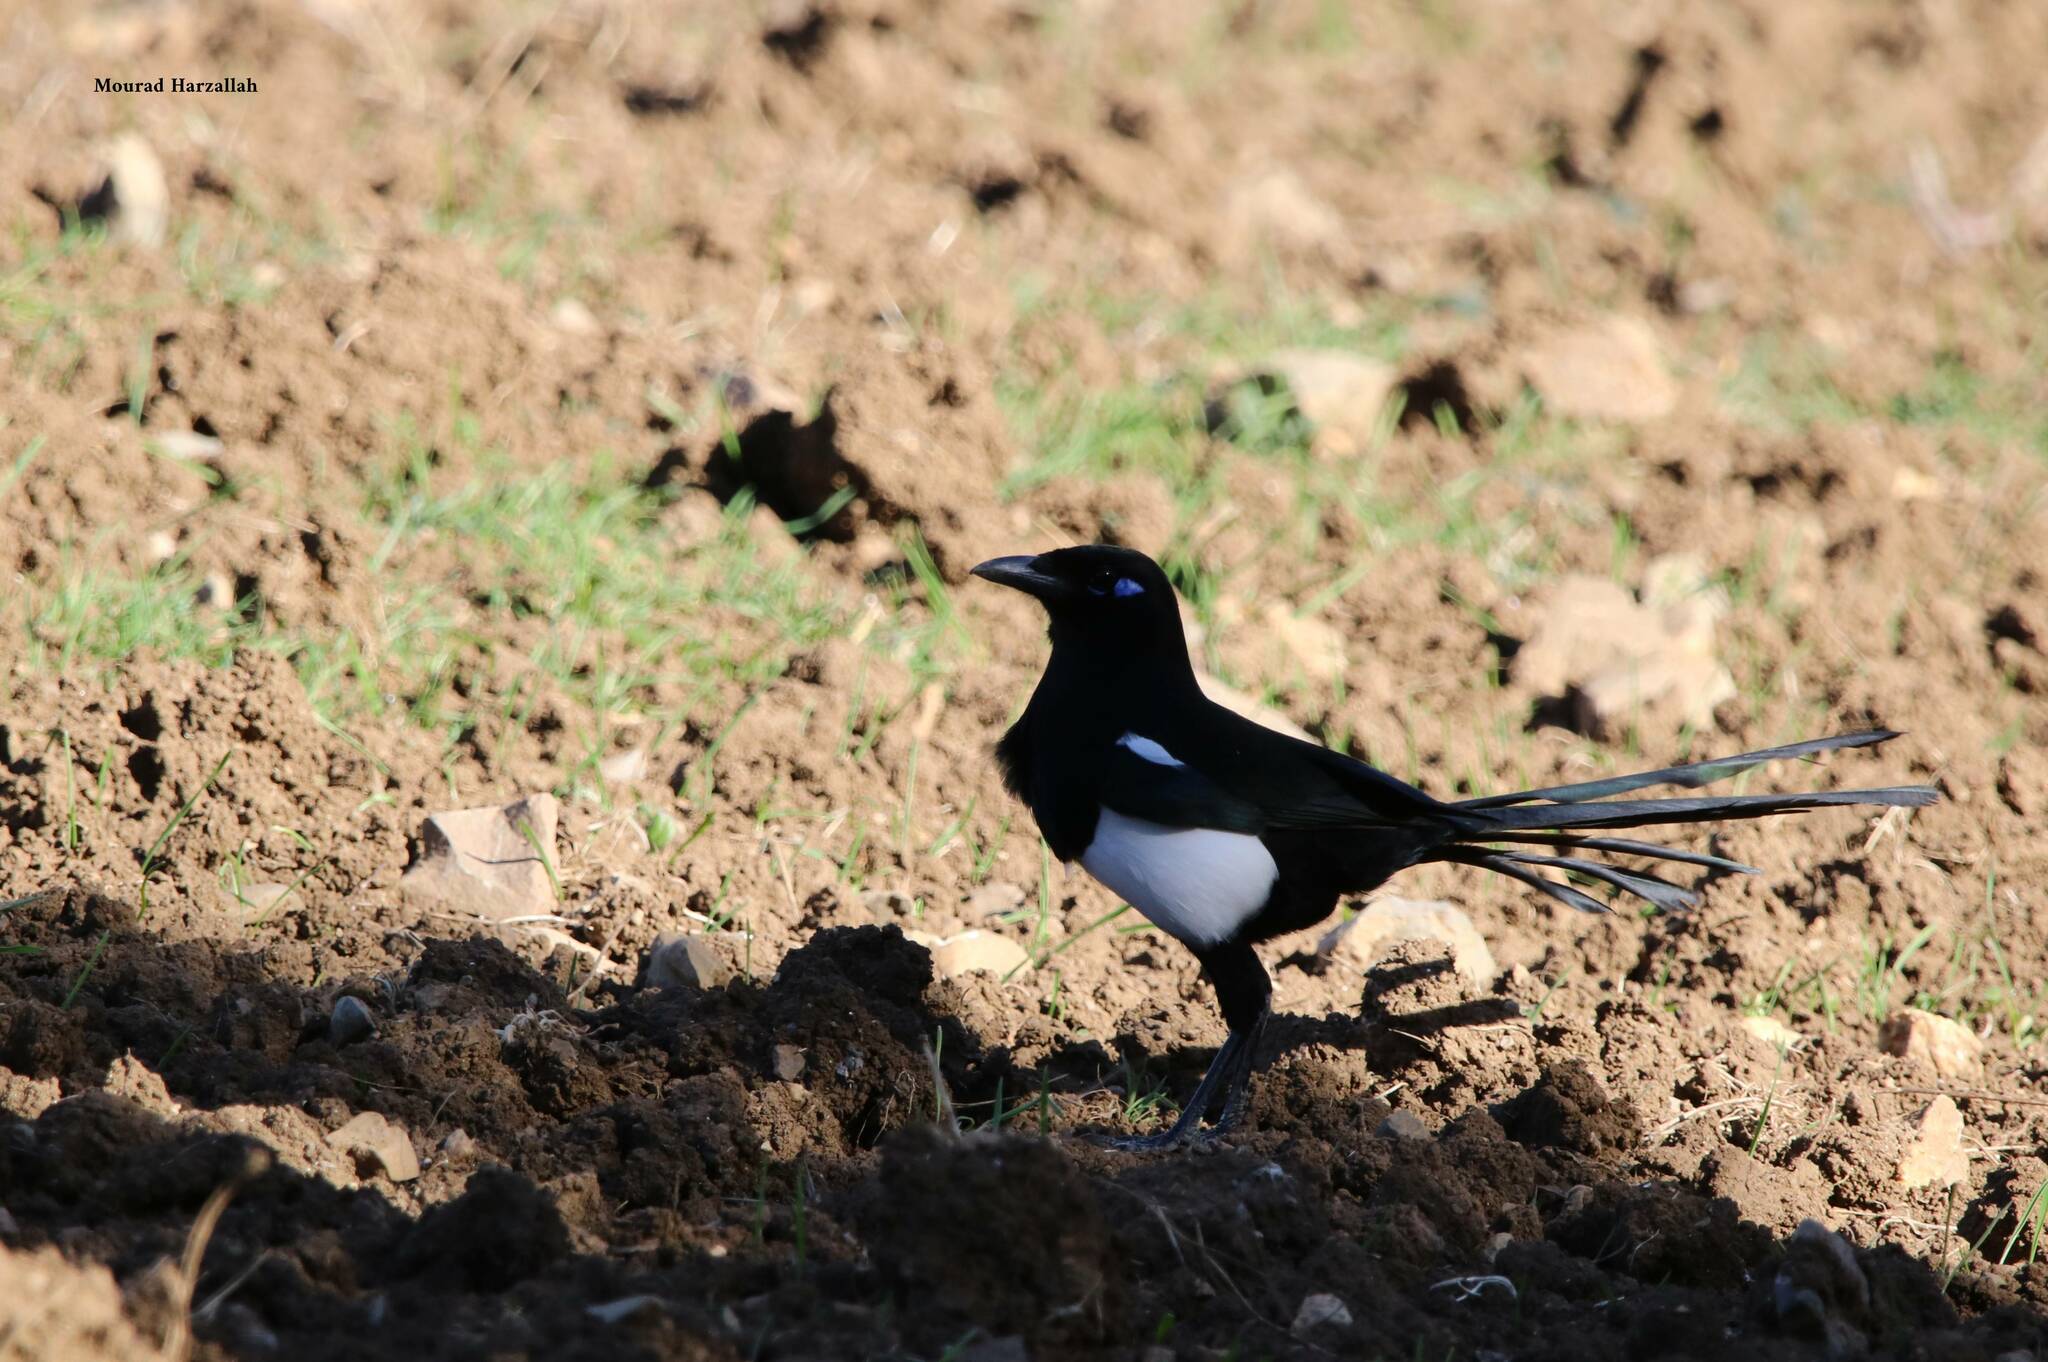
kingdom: Animalia
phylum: Chordata
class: Aves
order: Passeriformes
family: Corvidae
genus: Pica
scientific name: Pica mauritanica
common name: Maghreb magpie
